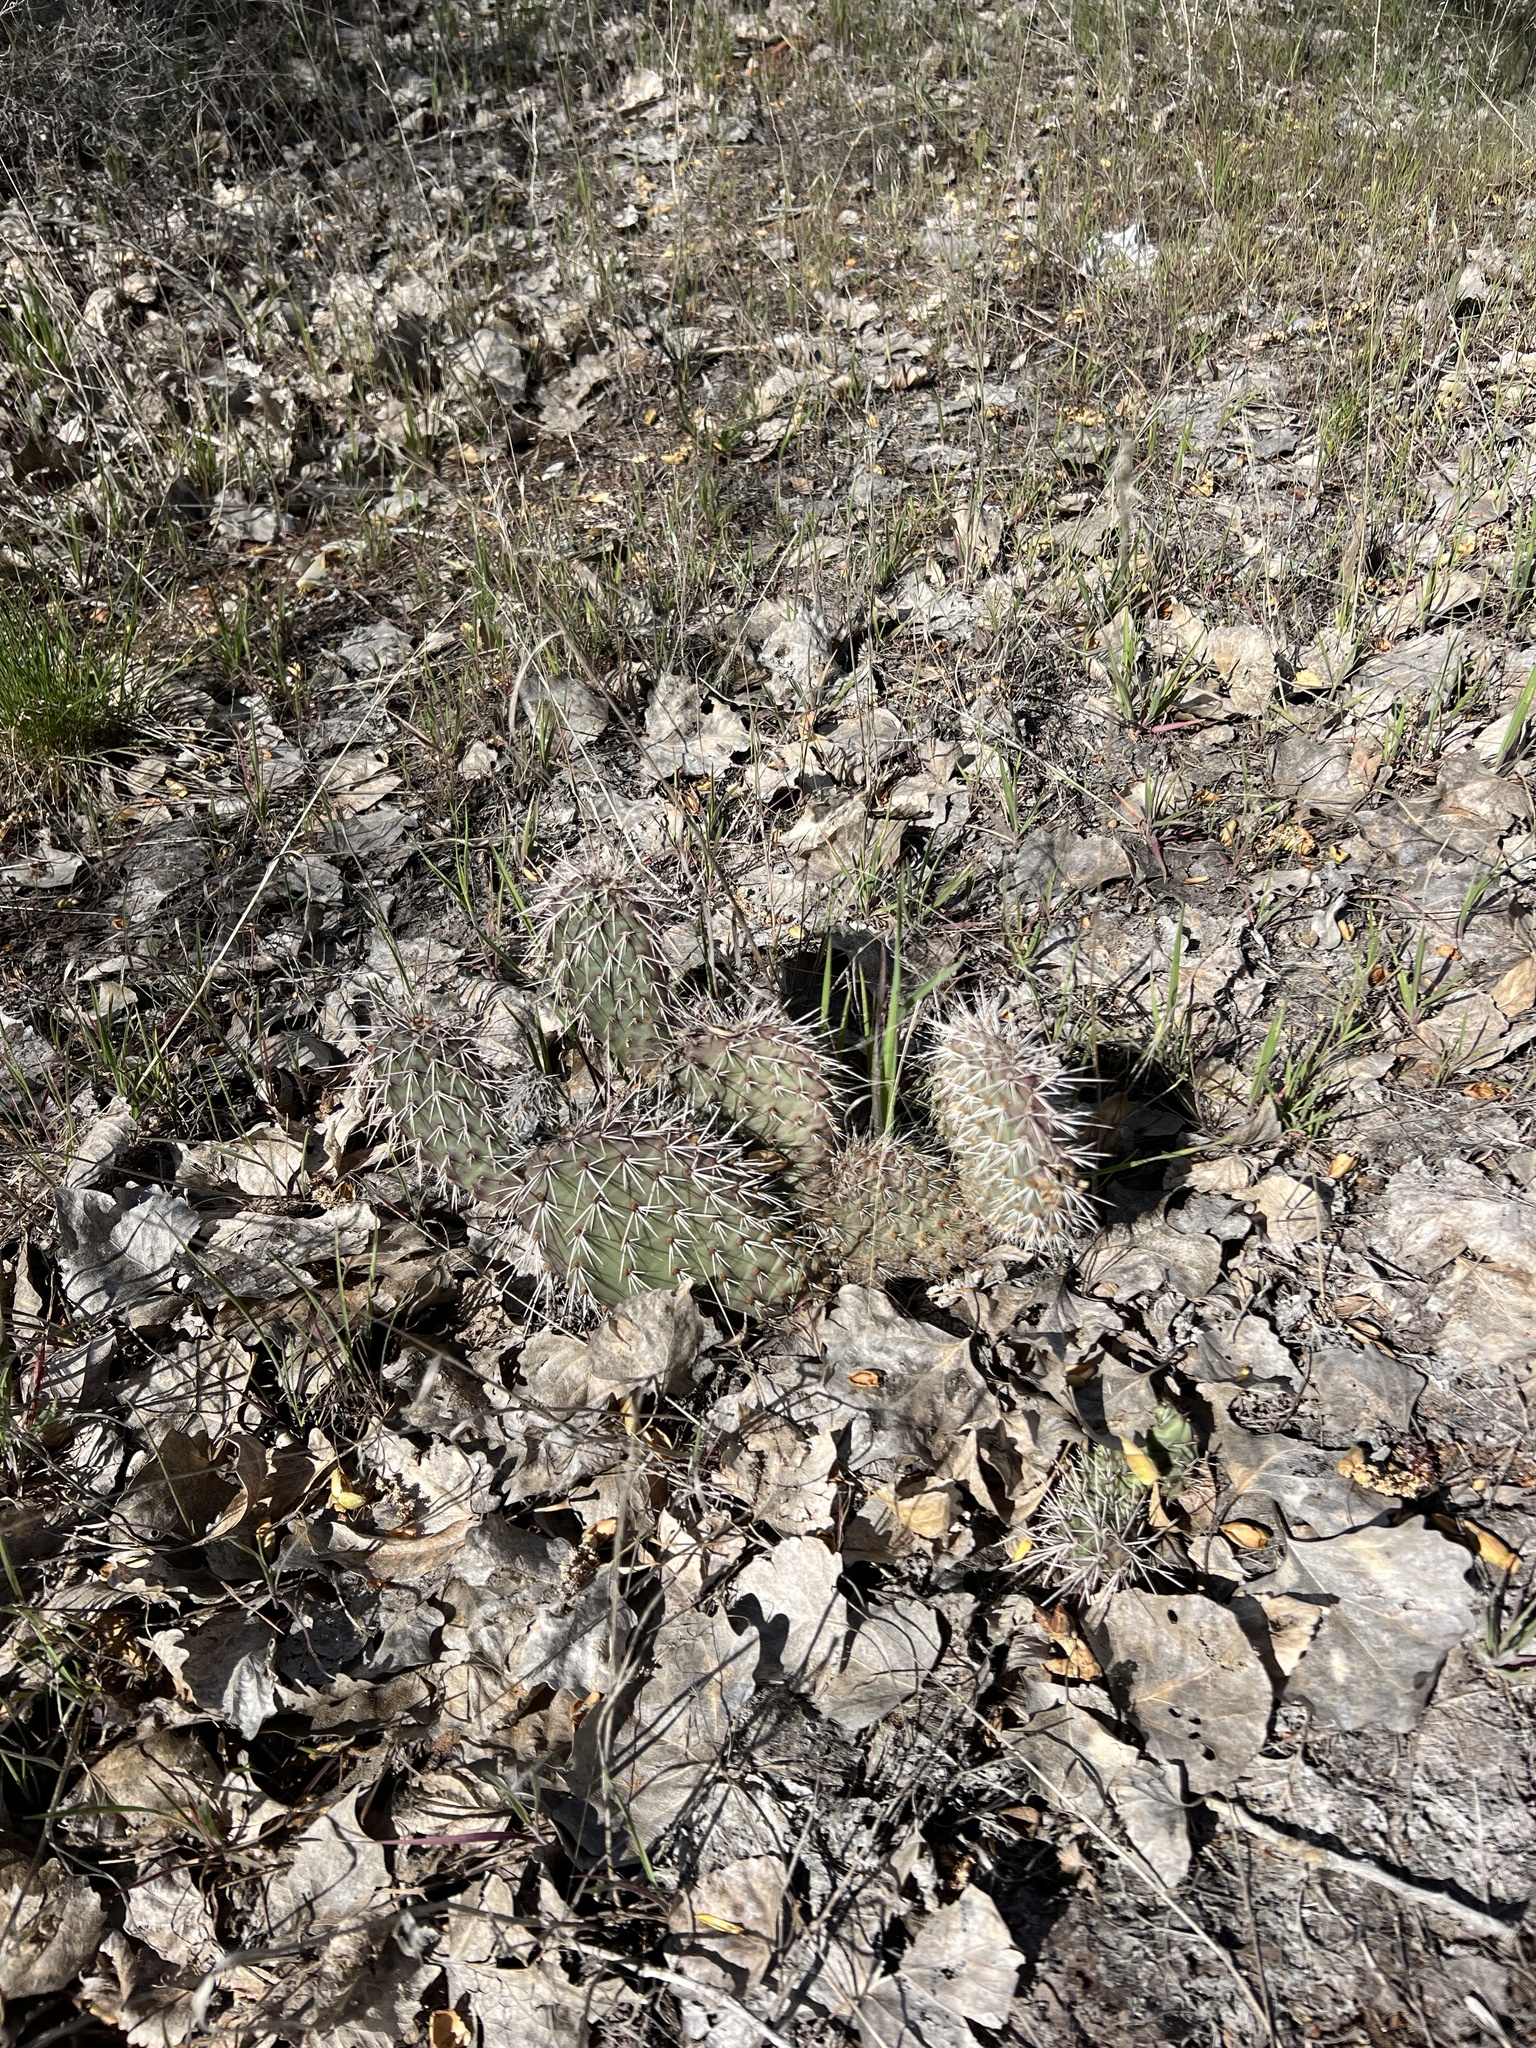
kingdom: Plantae
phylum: Tracheophyta
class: Magnoliopsida
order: Caryophyllales
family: Cactaceae
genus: Opuntia
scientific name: Opuntia polyacantha
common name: Plains prickly-pear
